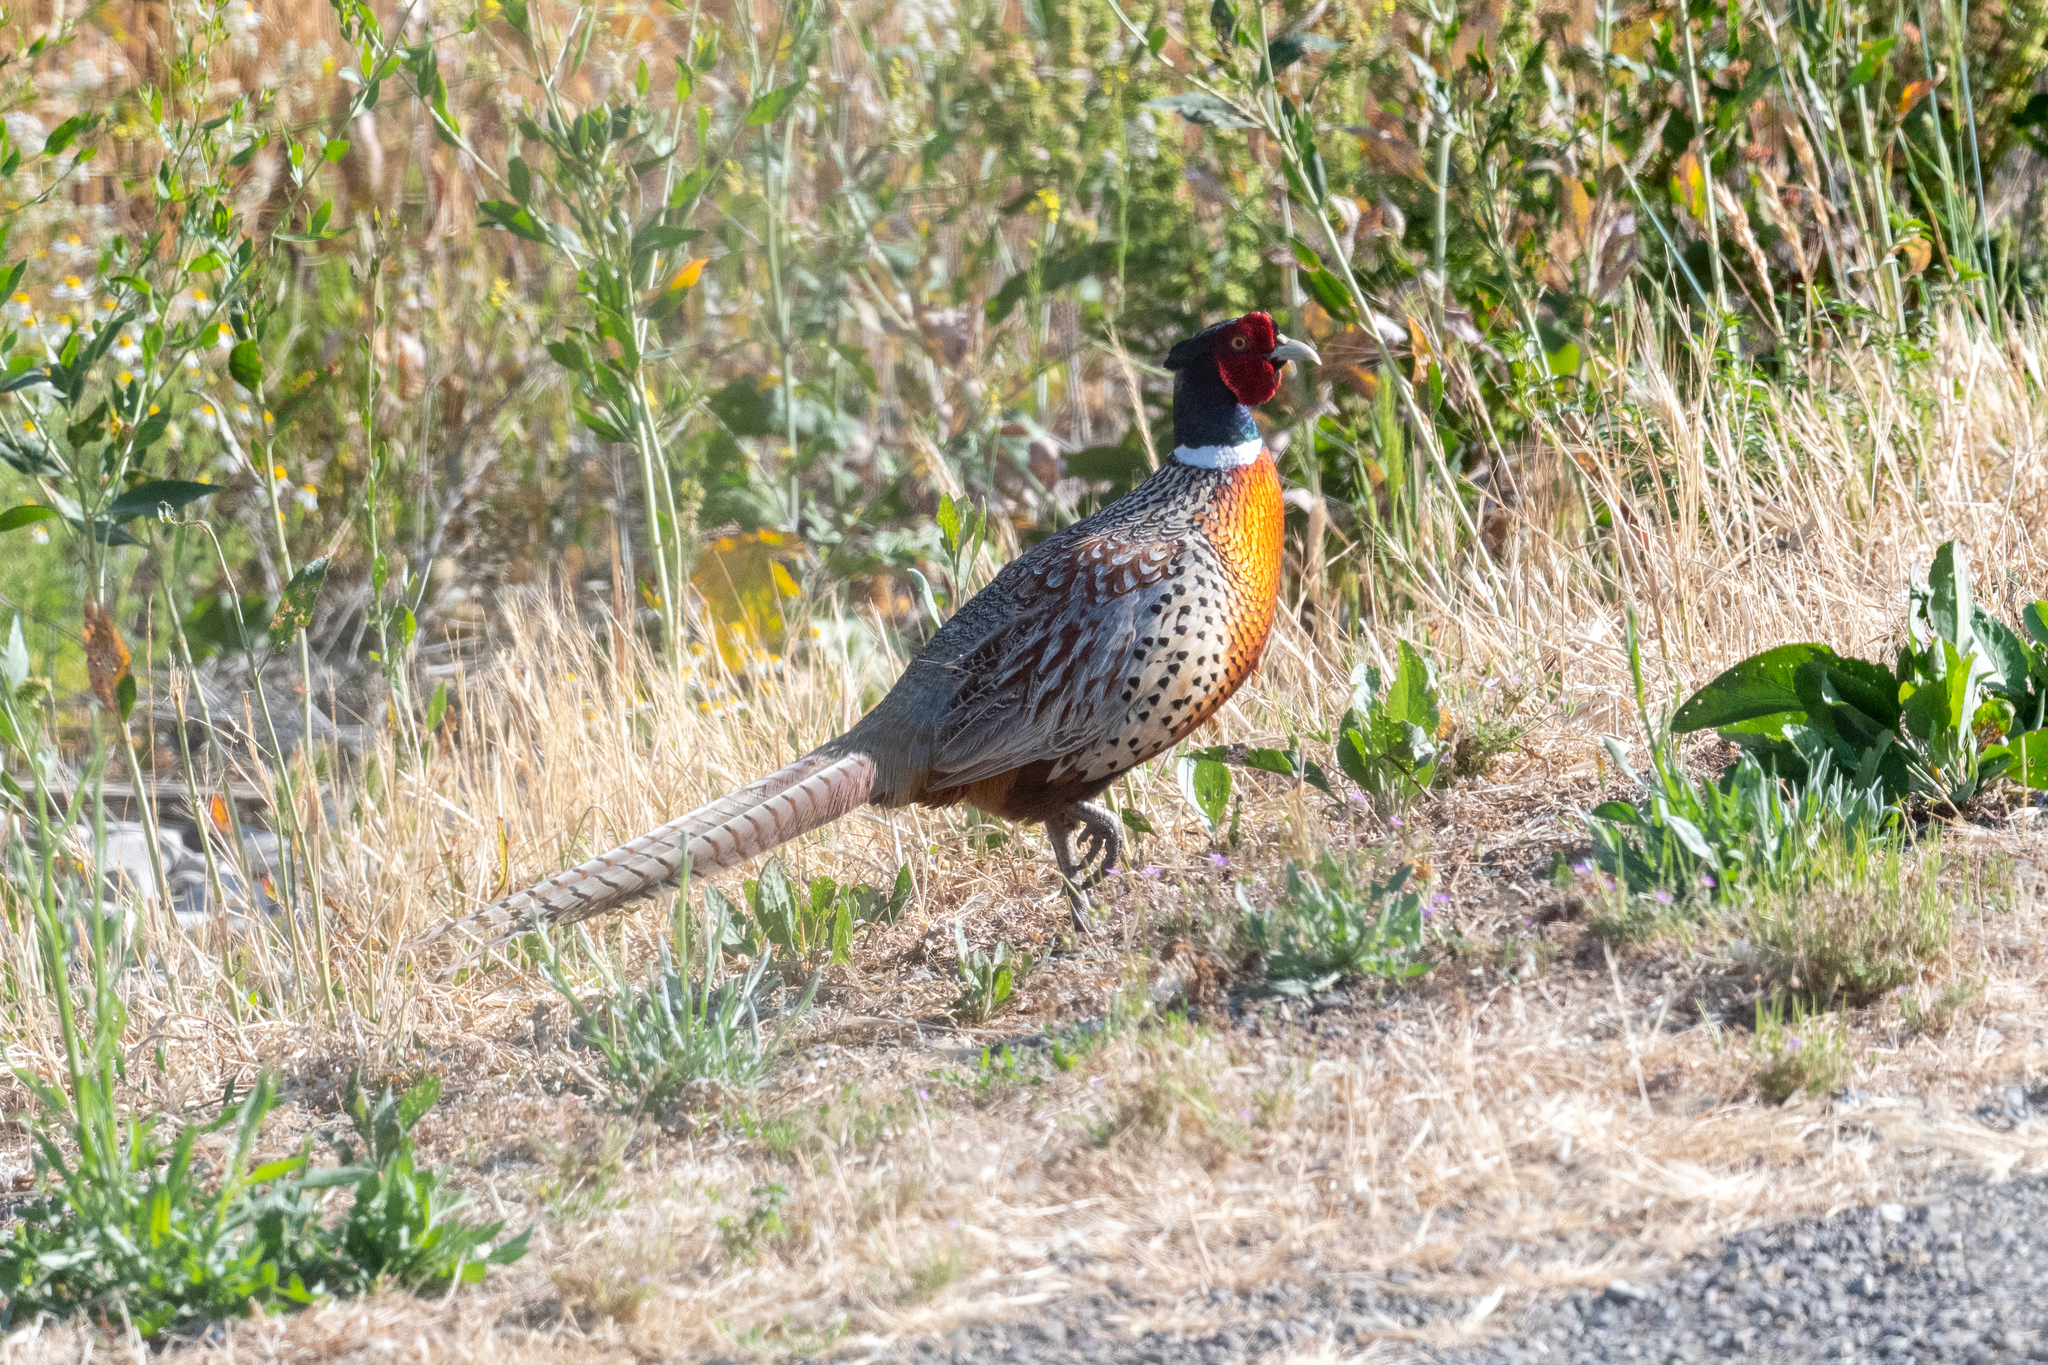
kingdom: Animalia
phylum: Chordata
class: Aves
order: Galliformes
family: Phasianidae
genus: Phasianus
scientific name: Phasianus colchicus
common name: Common pheasant
